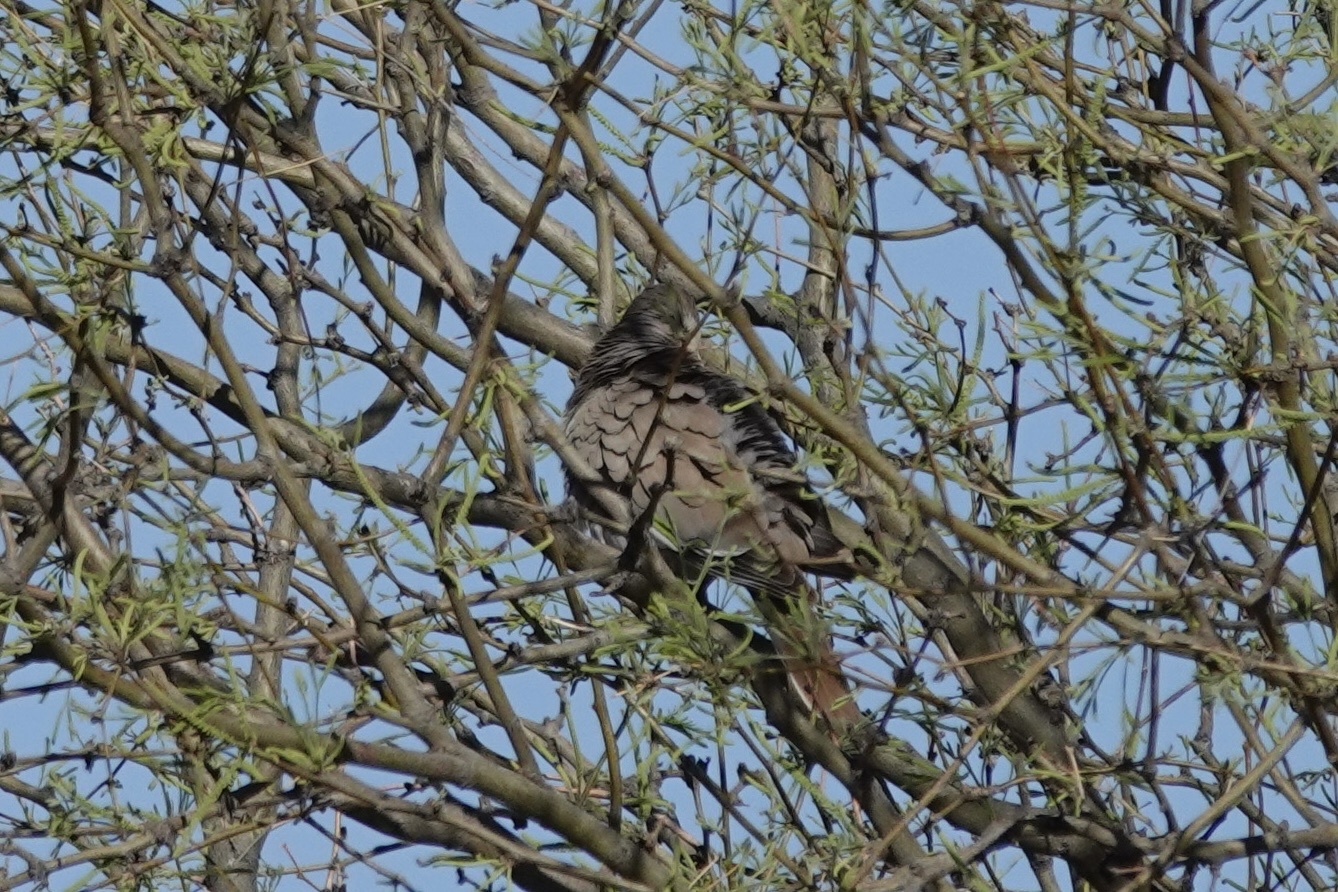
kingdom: Animalia
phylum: Chordata
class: Aves
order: Columbiformes
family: Columbidae
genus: Zenaida
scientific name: Zenaida asiatica
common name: White-winged dove
